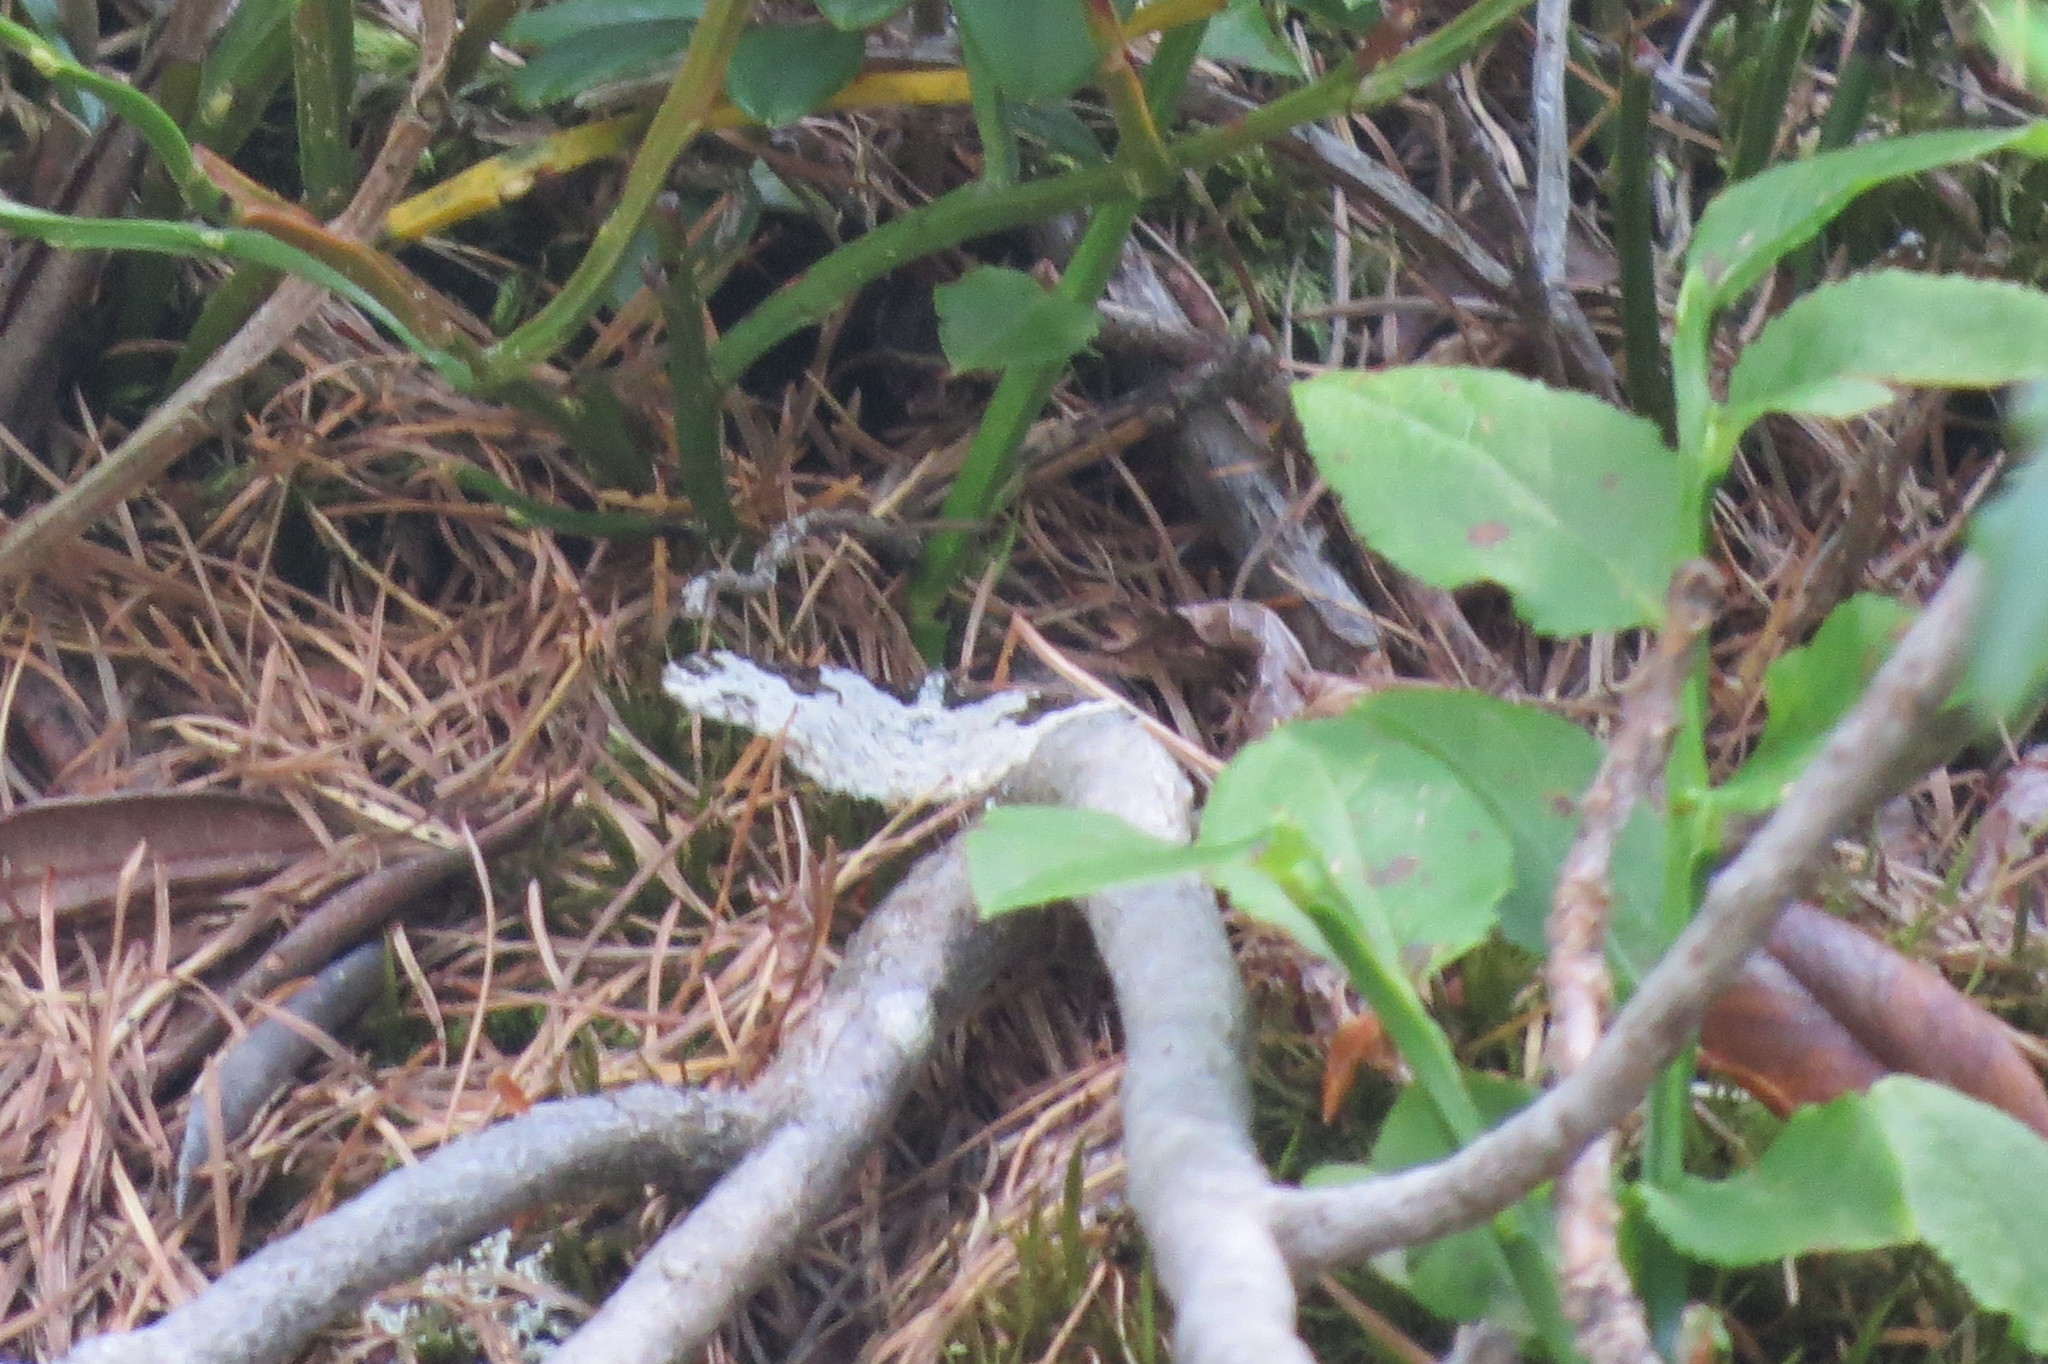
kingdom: Animalia
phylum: Arthropoda
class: Insecta
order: Lepidoptera
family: Geometridae
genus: Xanthorhoe
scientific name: Xanthorhoe fluctuata
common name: Garden carpet
